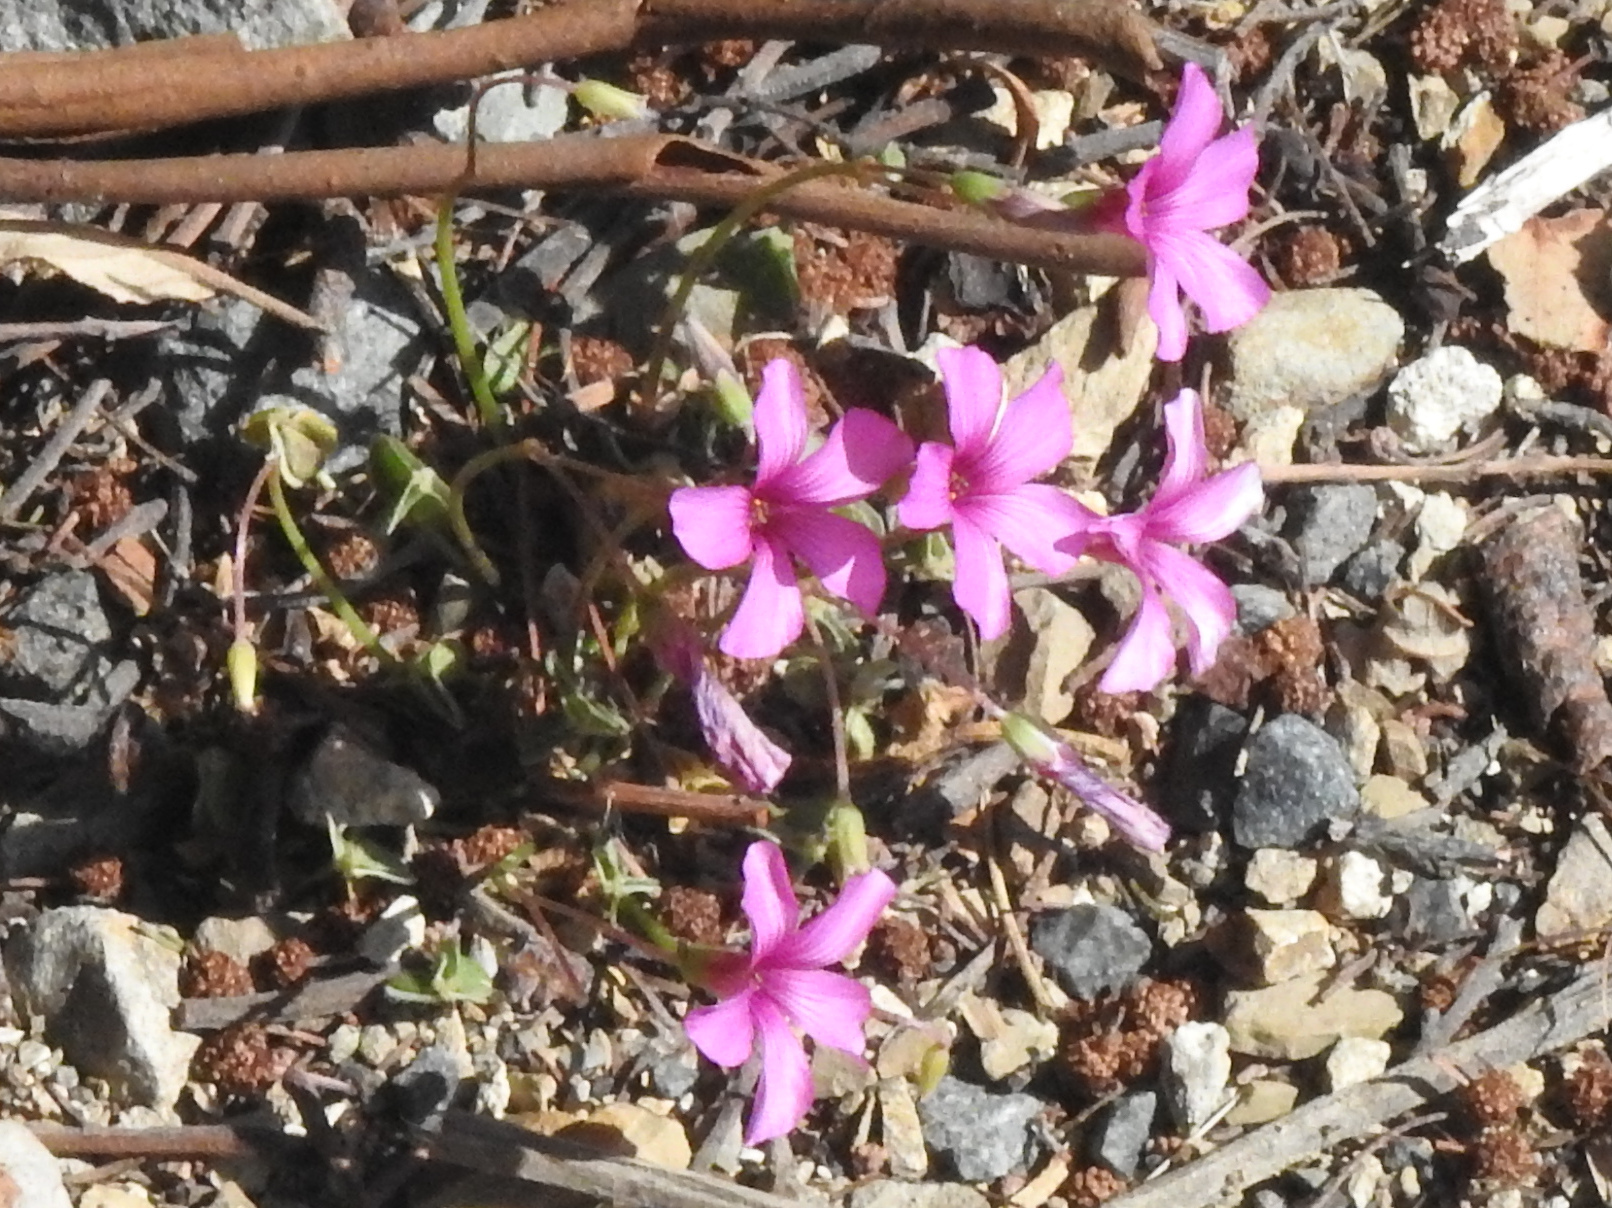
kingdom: Plantae
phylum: Tracheophyta
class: Magnoliopsida
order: Oxalidales
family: Oxalidaceae
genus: Oxalis
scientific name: Oxalis articulata
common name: Pink-sorrel
